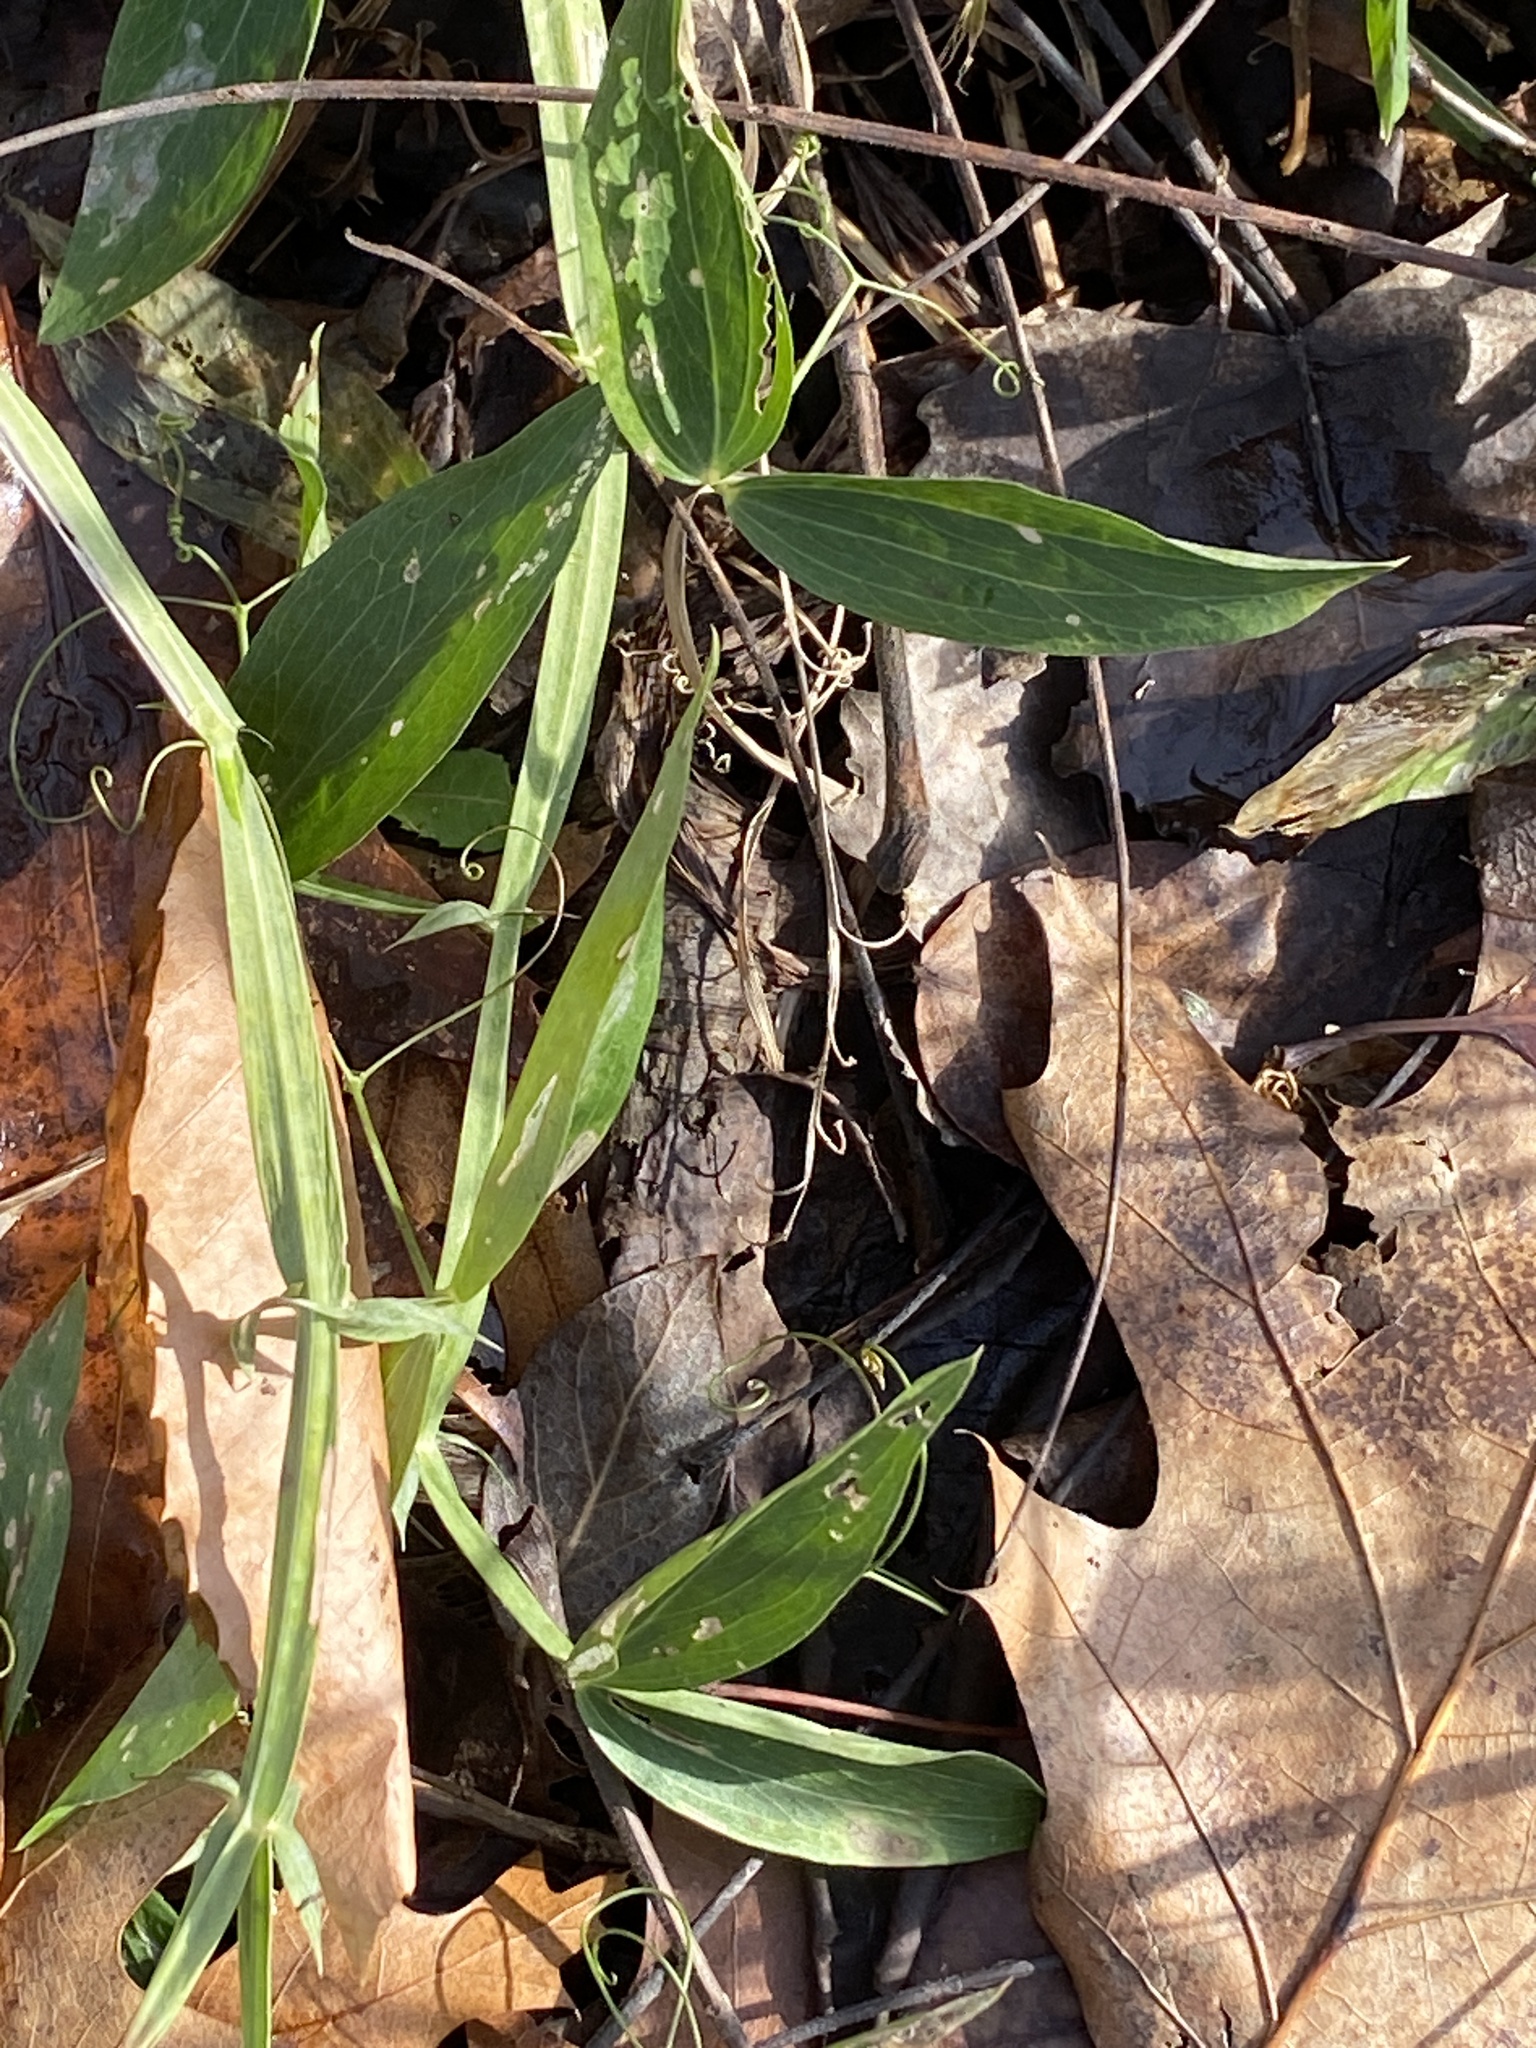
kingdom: Plantae
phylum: Tracheophyta
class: Magnoliopsida
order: Fabales
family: Fabaceae
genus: Lathyrus
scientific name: Lathyrus latifolius
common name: Perennial pea
